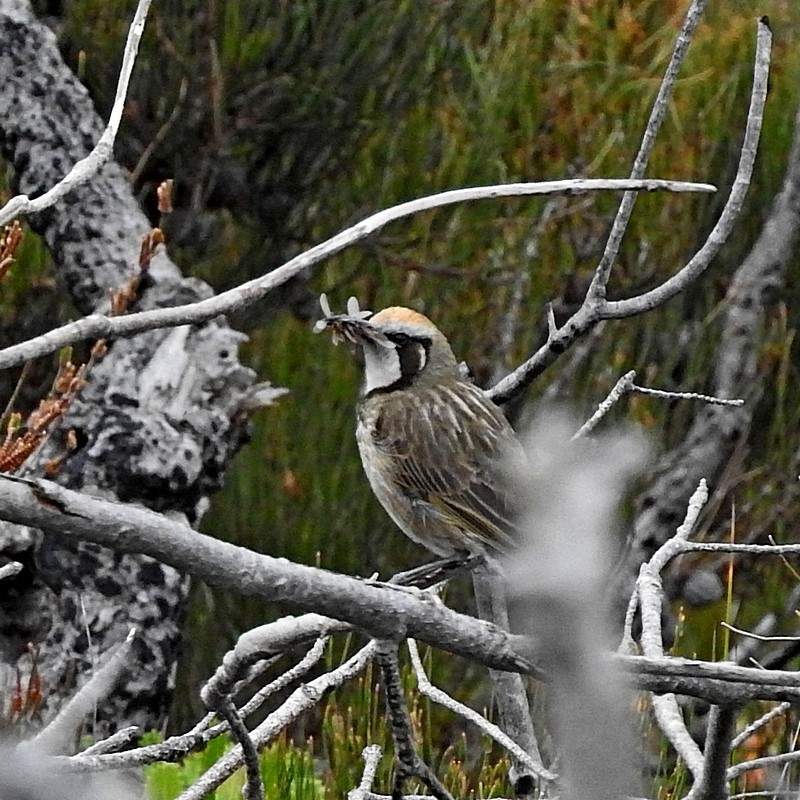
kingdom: Animalia
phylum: Chordata
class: Aves
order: Passeriformes
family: Meliphagidae
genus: Gliciphila
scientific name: Gliciphila melanops
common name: Tawny-crowned honeyeater
